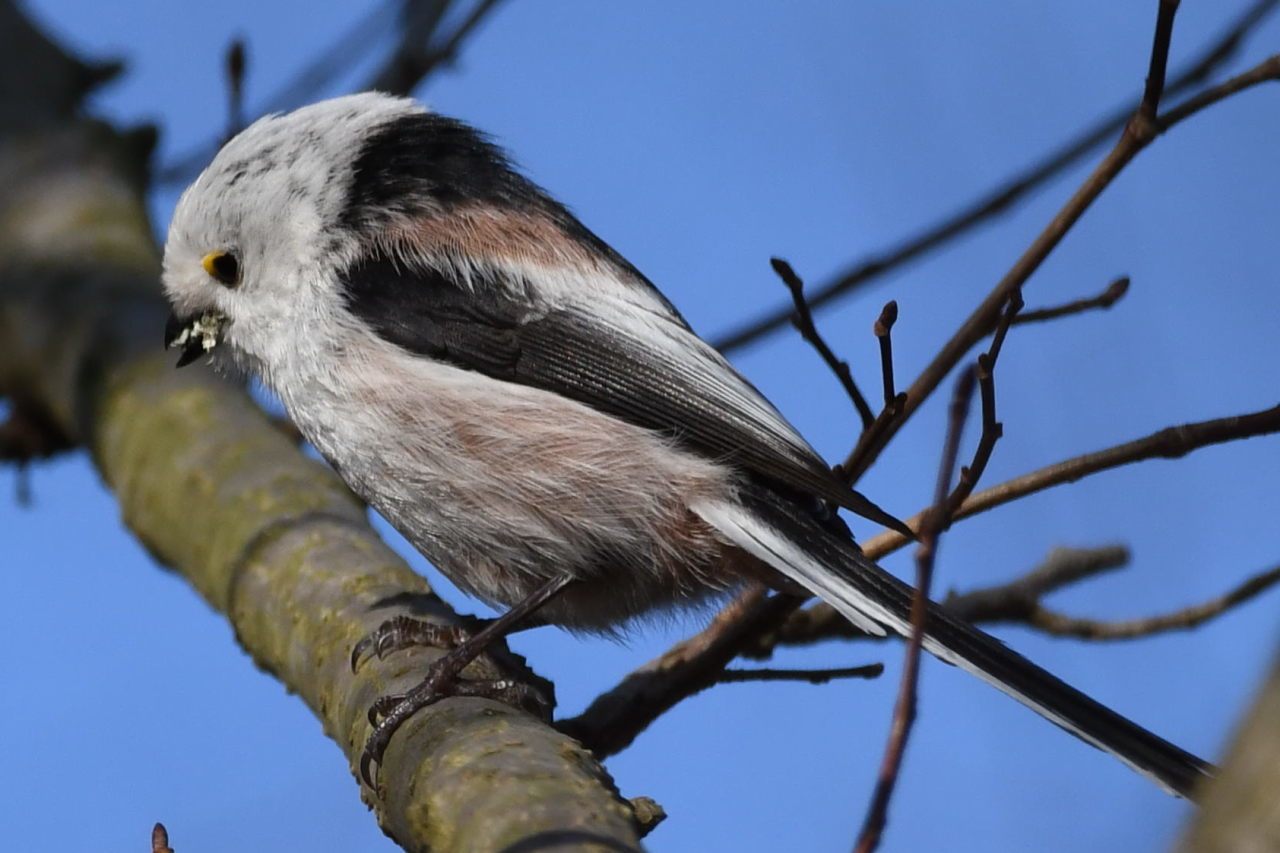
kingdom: Animalia
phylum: Chordata
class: Aves
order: Passeriformes
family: Aegithalidae
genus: Aegithalos
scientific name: Aegithalos caudatus
